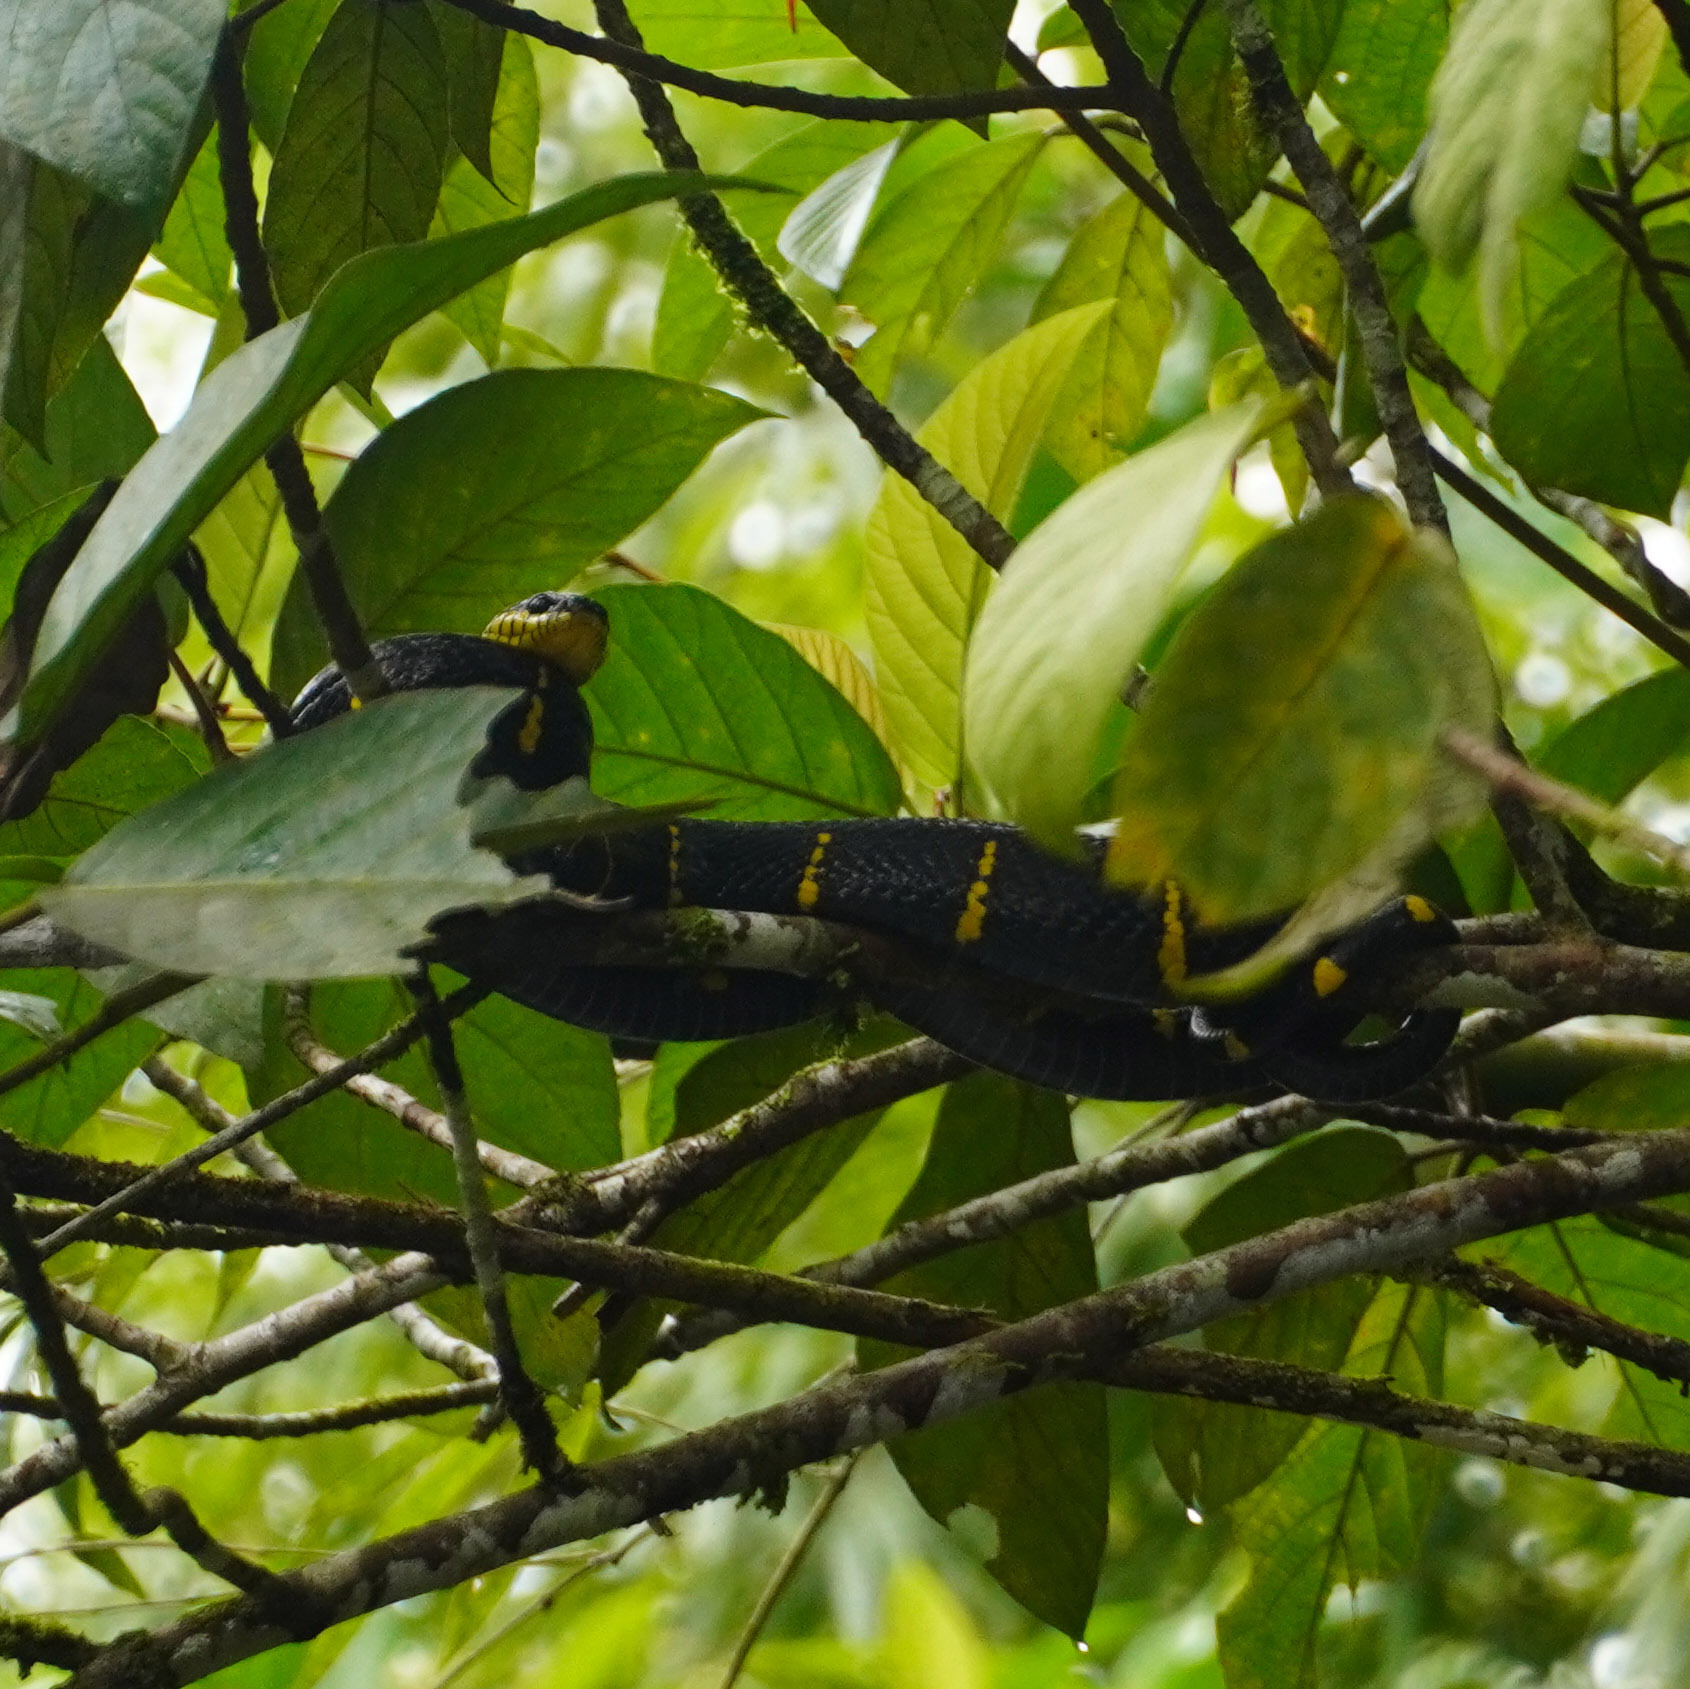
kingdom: Animalia
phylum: Chordata
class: Squamata
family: Colubridae
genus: Boiga
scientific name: Boiga melanota
